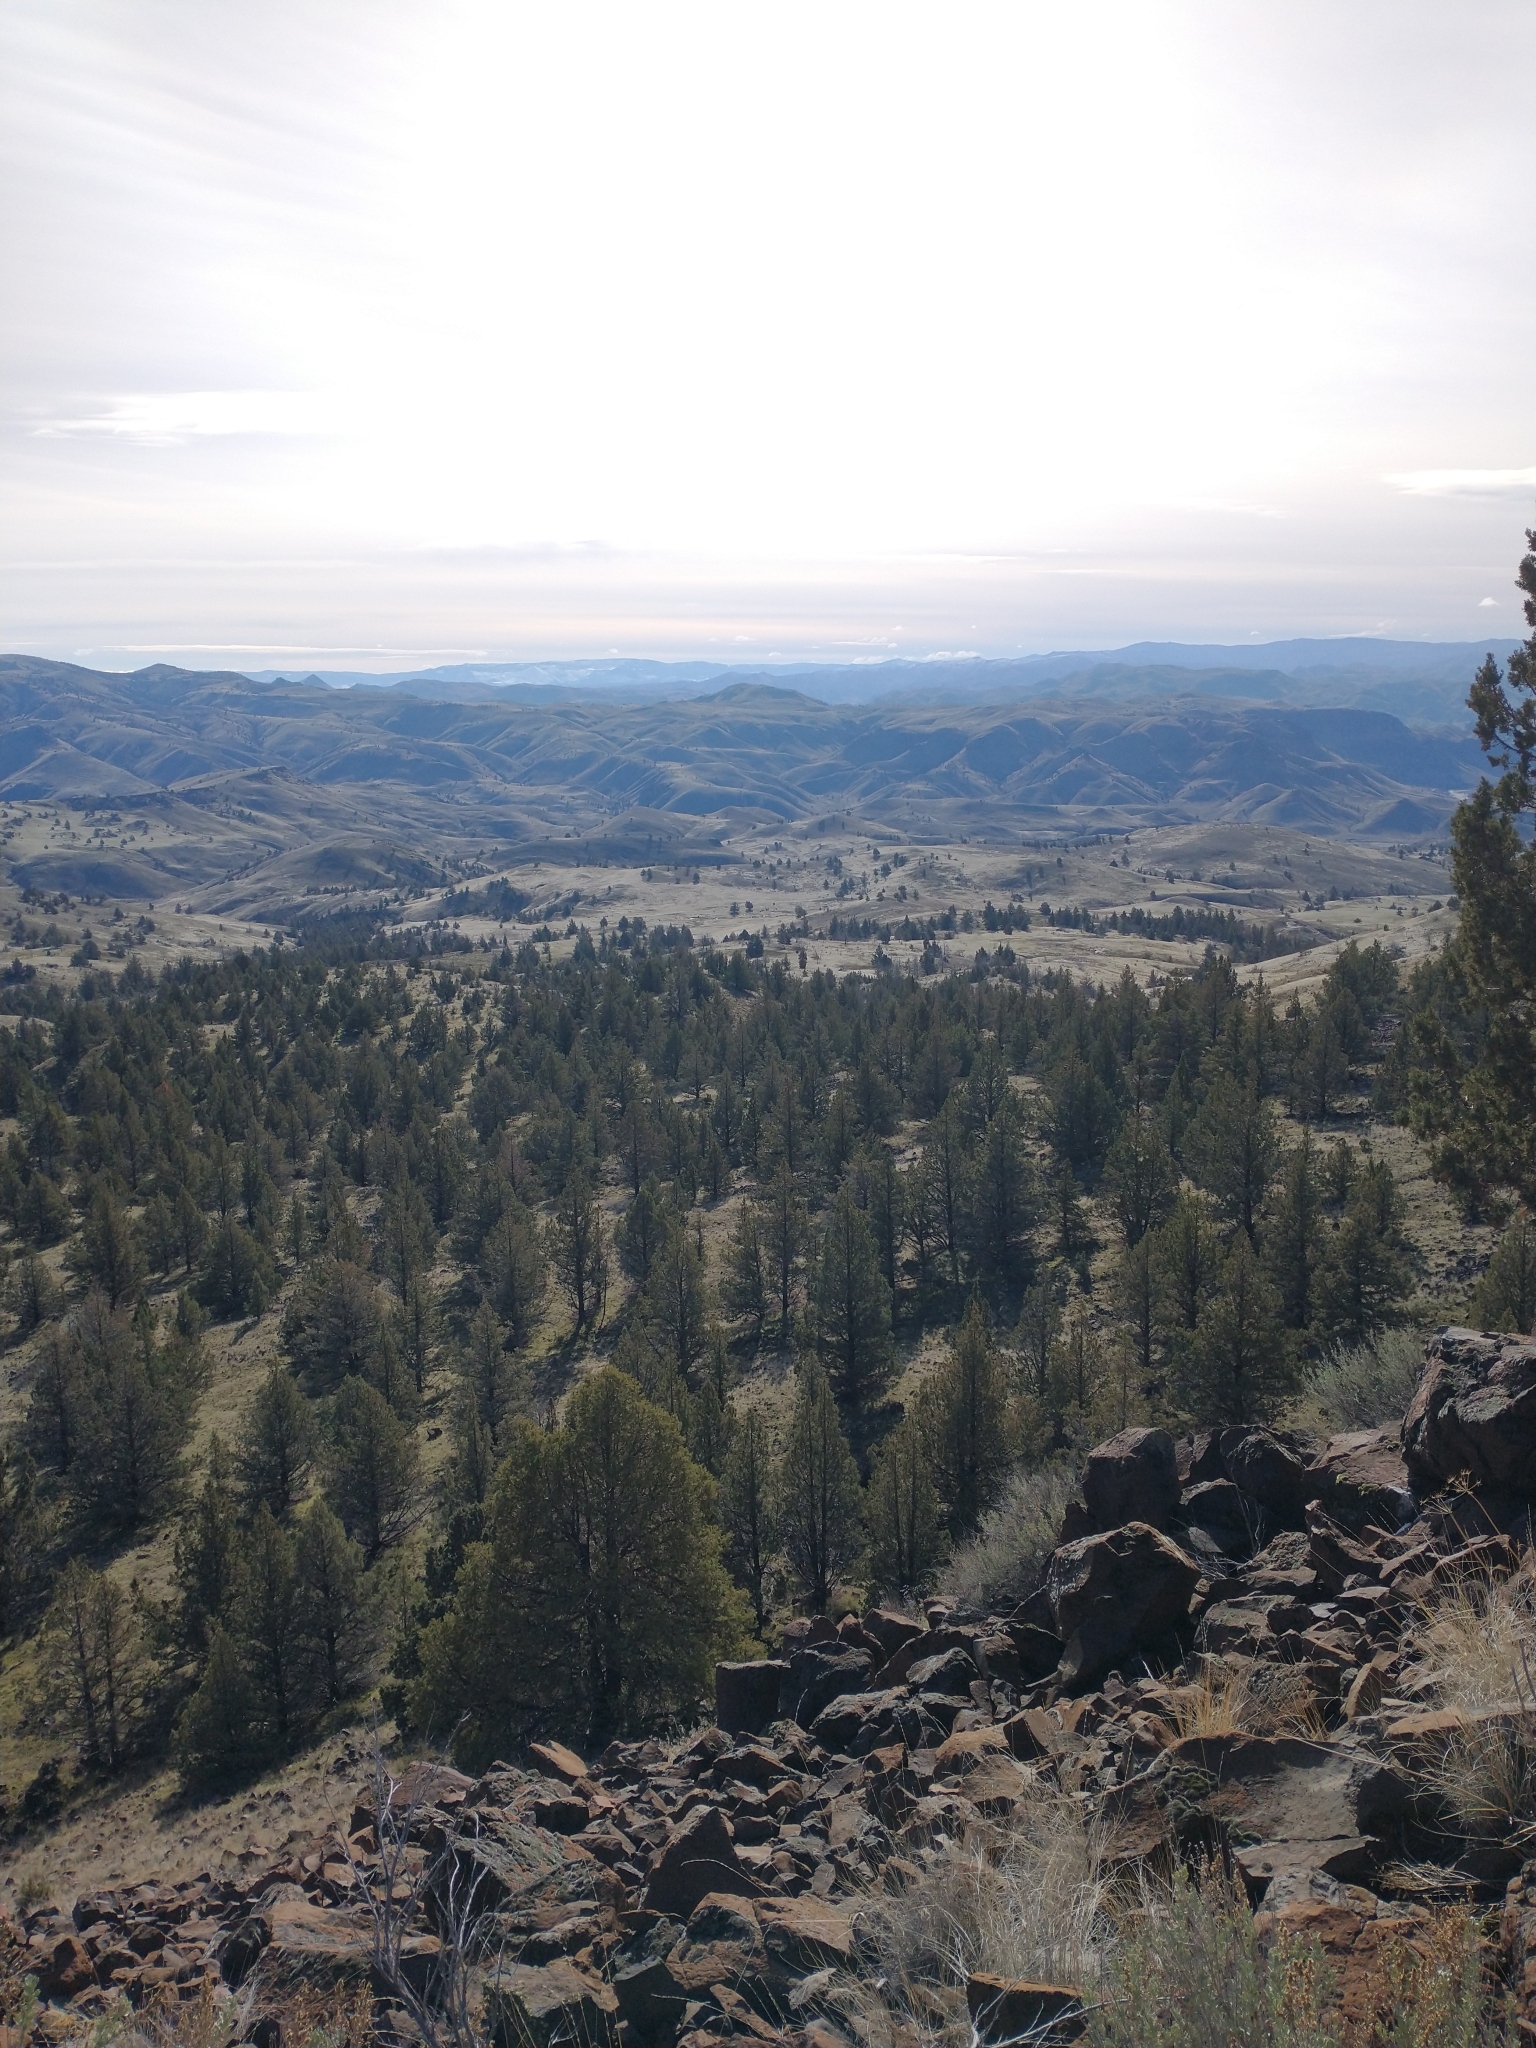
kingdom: Plantae
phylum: Tracheophyta
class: Pinopsida
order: Pinales
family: Cupressaceae
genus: Juniperus
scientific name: Juniperus occidentalis
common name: Western juniper
